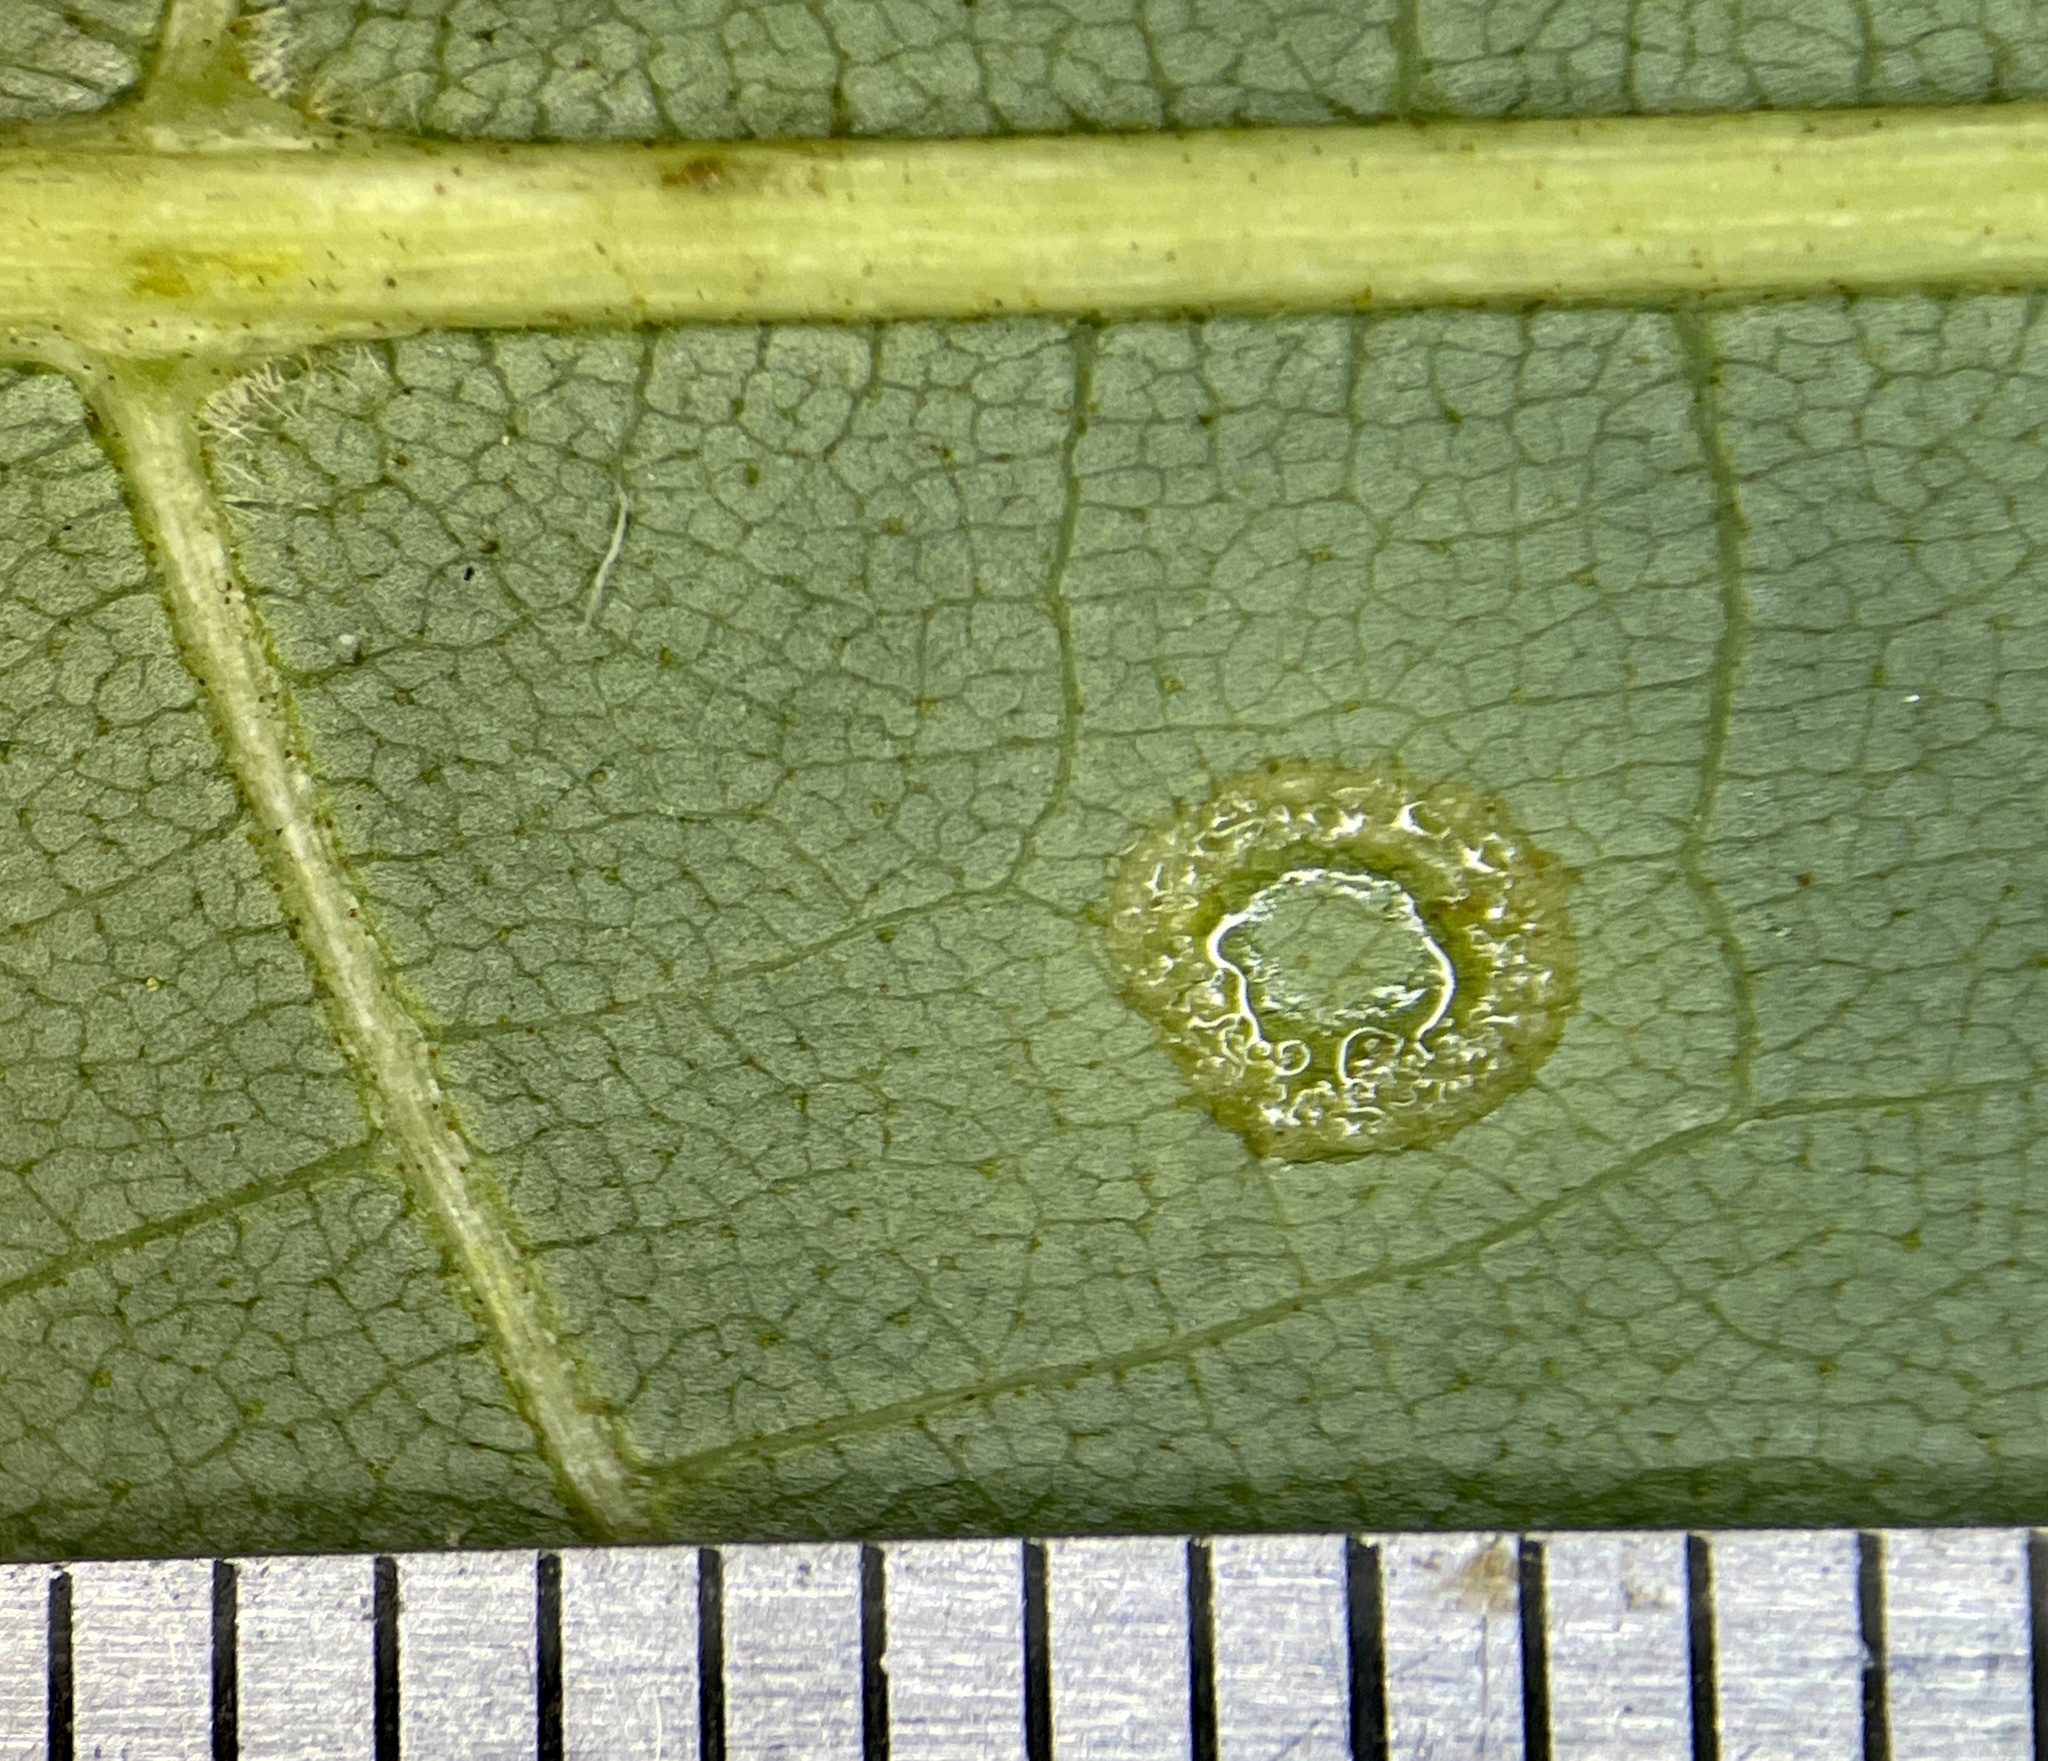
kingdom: Animalia
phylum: Arthropoda
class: Insecta
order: Diptera
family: Cecidomyiidae
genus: Gliaspilota
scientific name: Gliaspilota glutinosa
